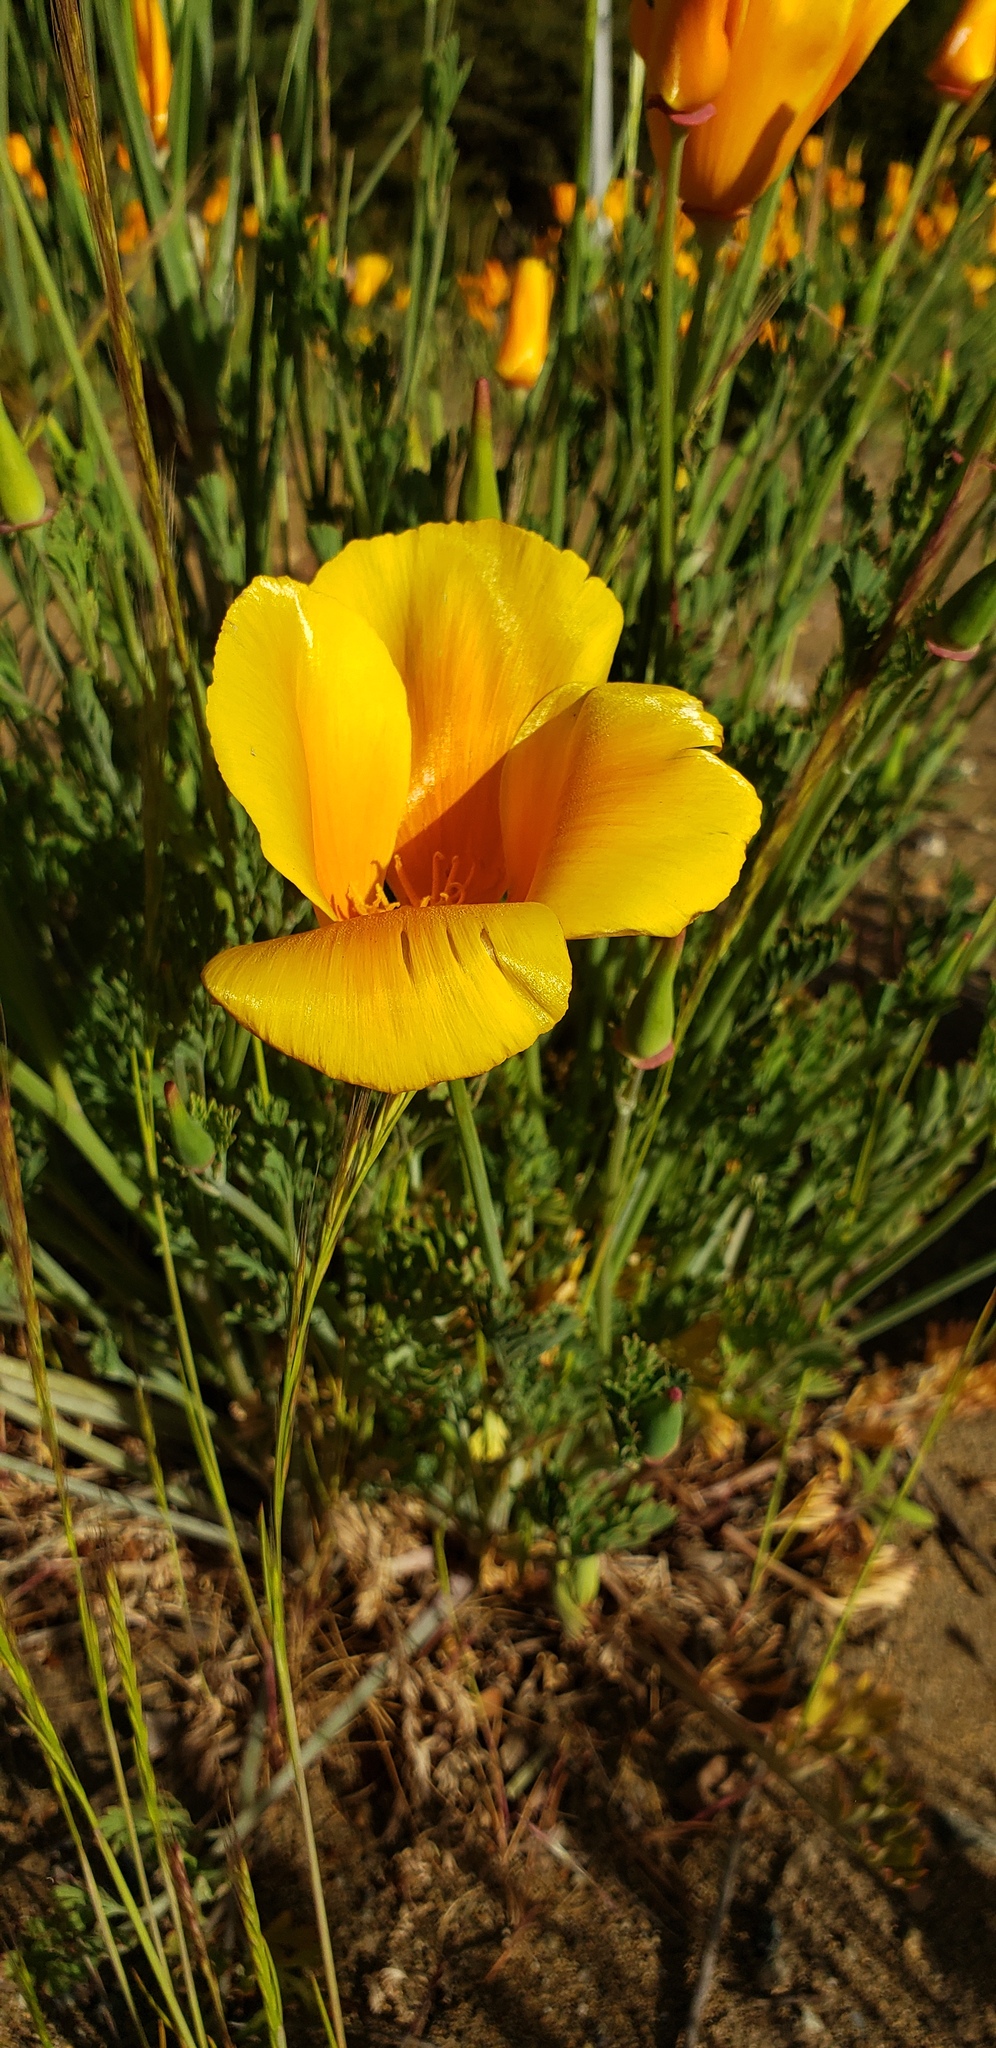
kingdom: Plantae
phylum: Tracheophyta
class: Magnoliopsida
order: Ranunculales
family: Papaveraceae
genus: Eschscholzia
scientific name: Eschscholzia californica
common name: California poppy
